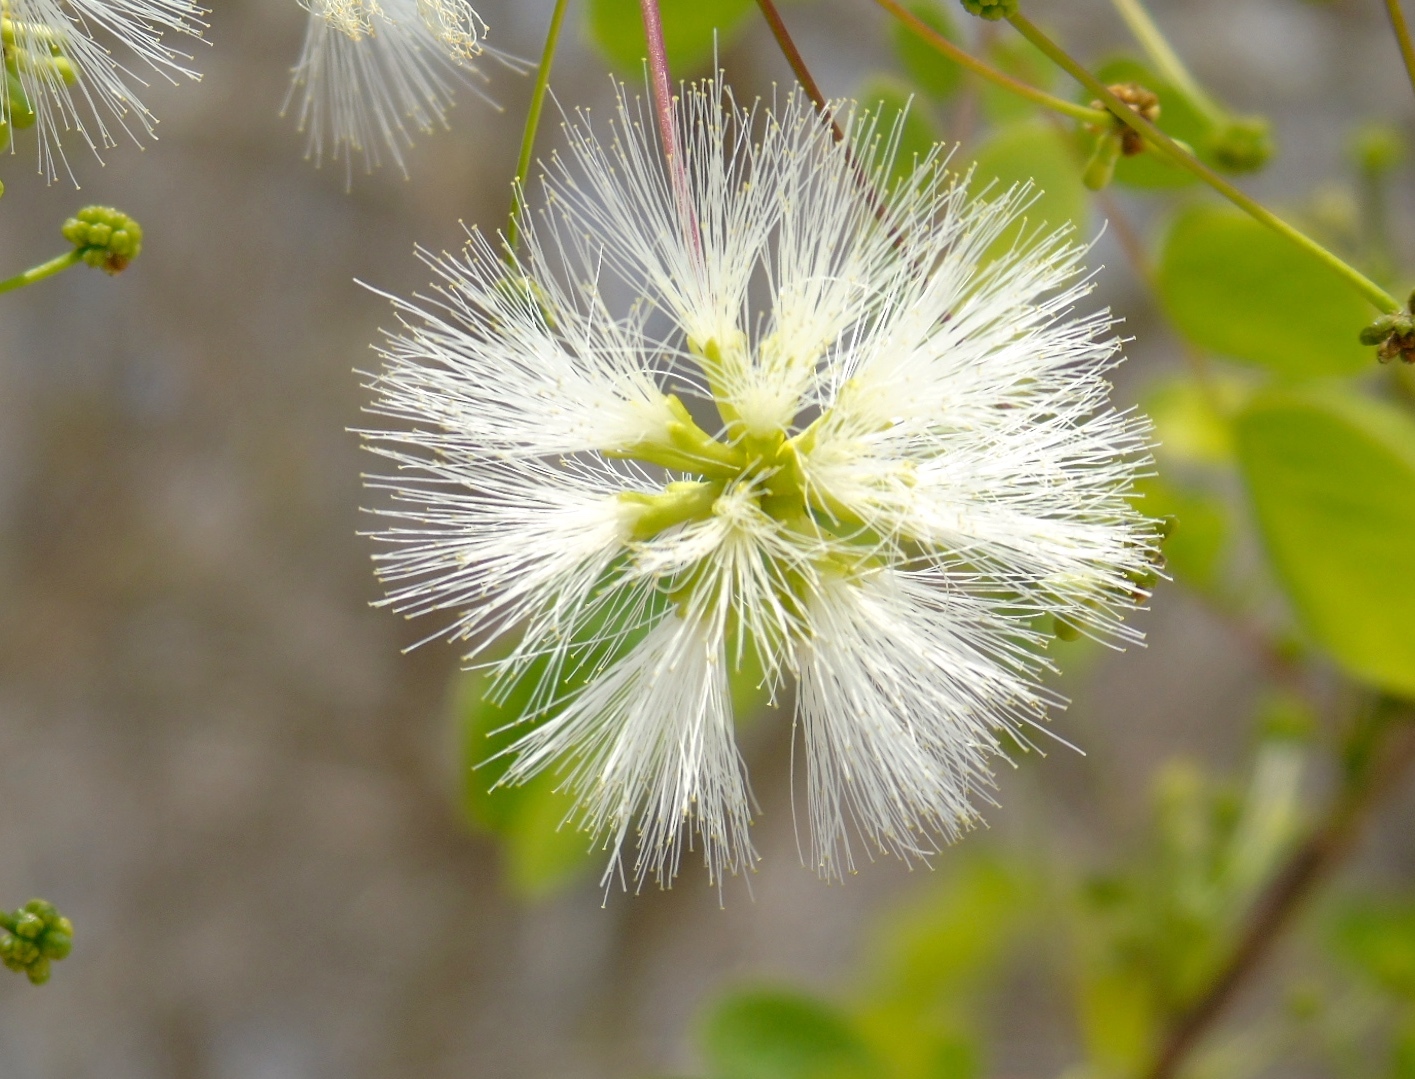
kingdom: Plantae
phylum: Tracheophyta
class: Magnoliopsida
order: Fabales
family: Fabaceae
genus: Albizia
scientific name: Albizia occidentalis
